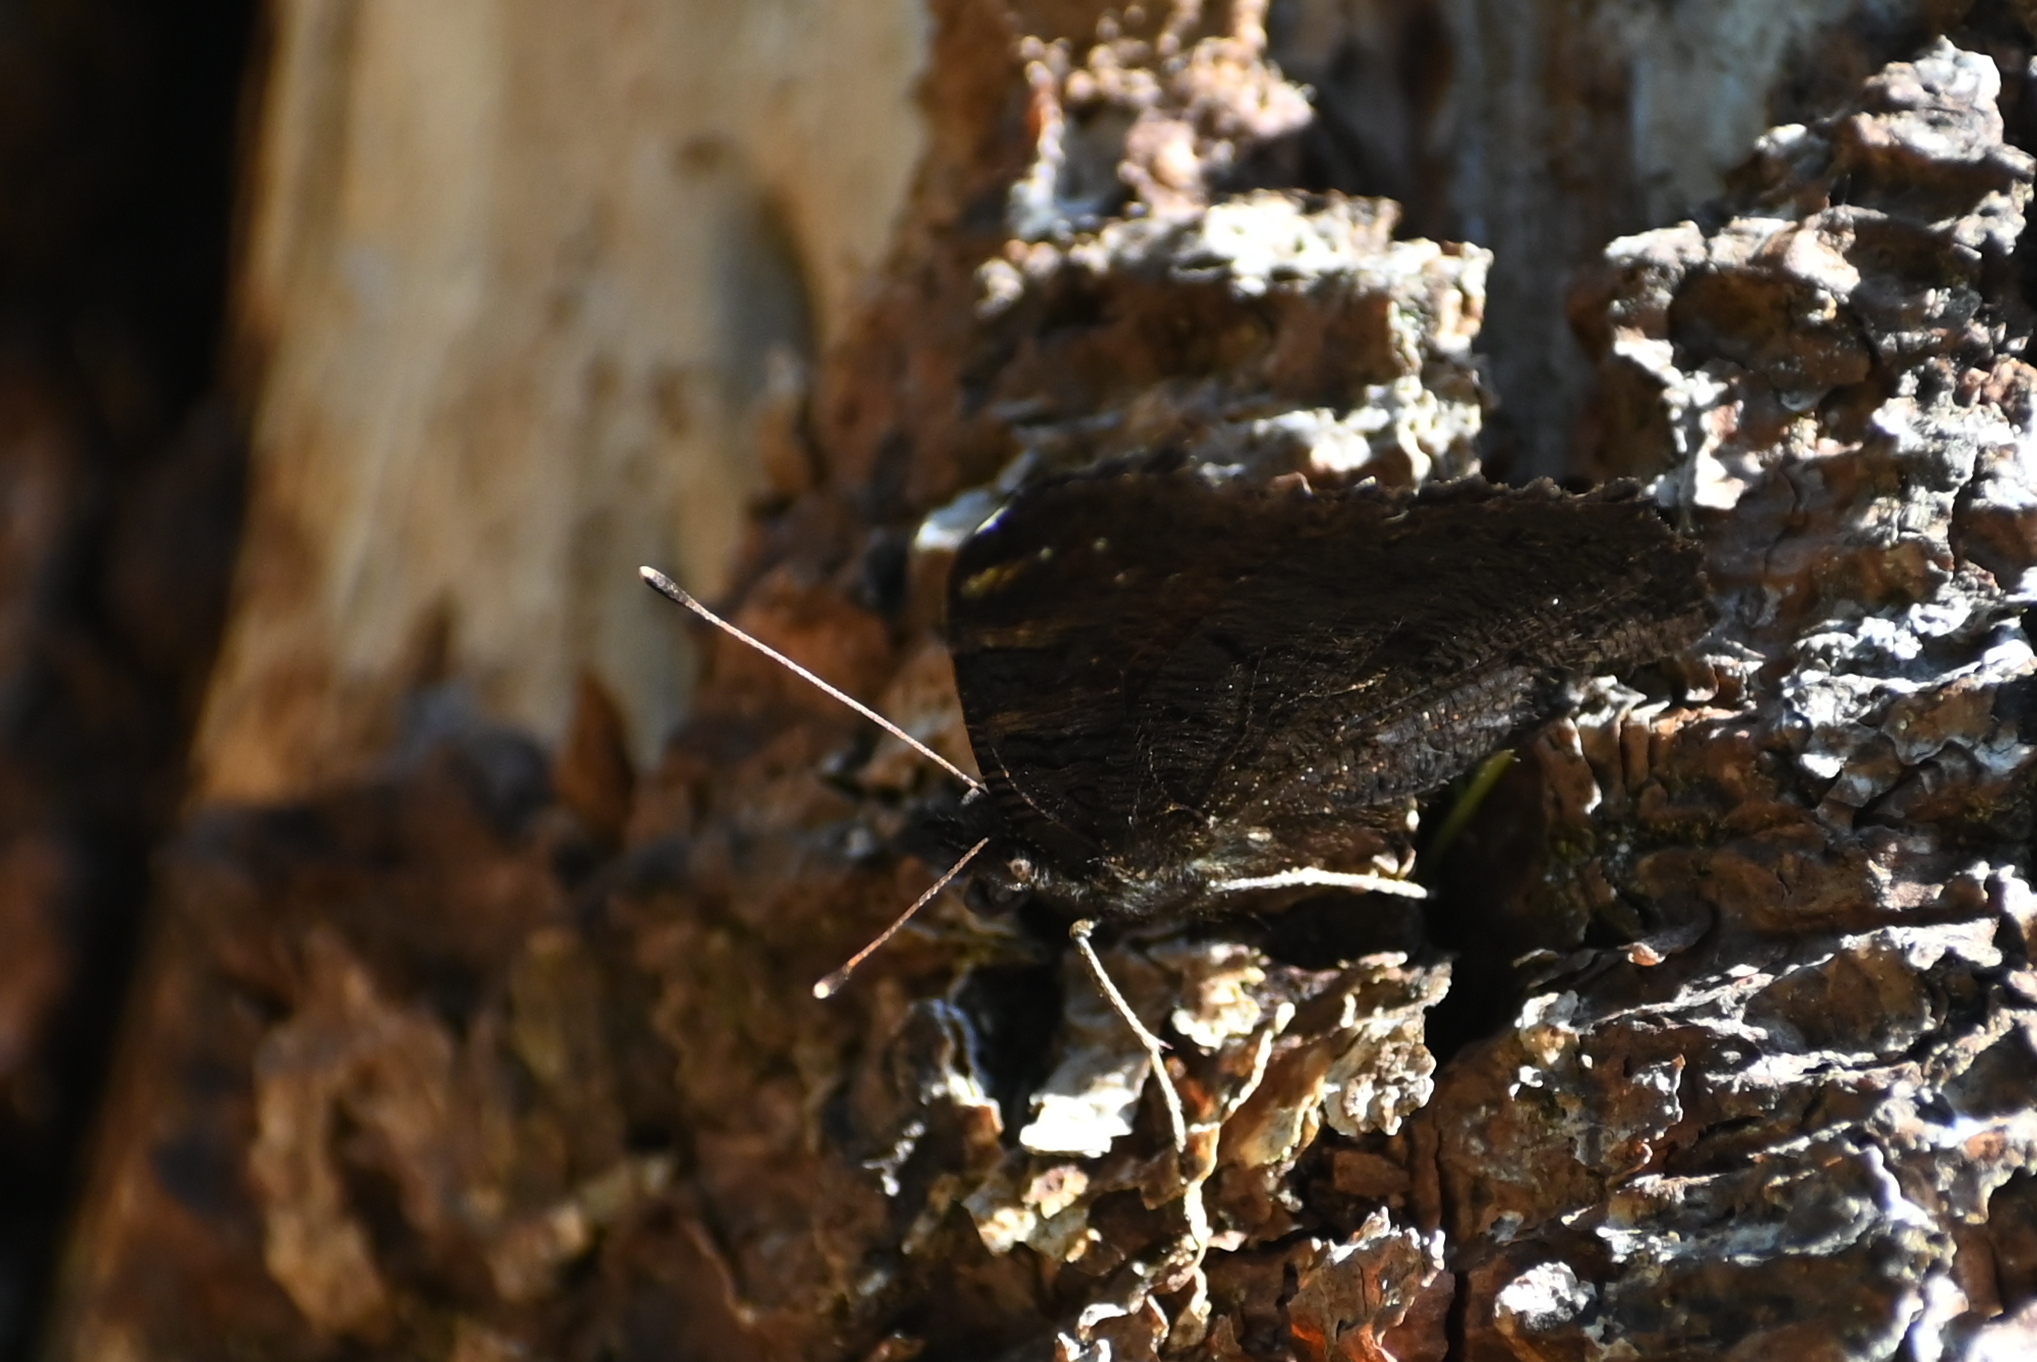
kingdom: Animalia
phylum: Arthropoda
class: Insecta
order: Lepidoptera
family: Nymphalidae
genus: Aglais
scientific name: Aglais io
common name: Peacock
